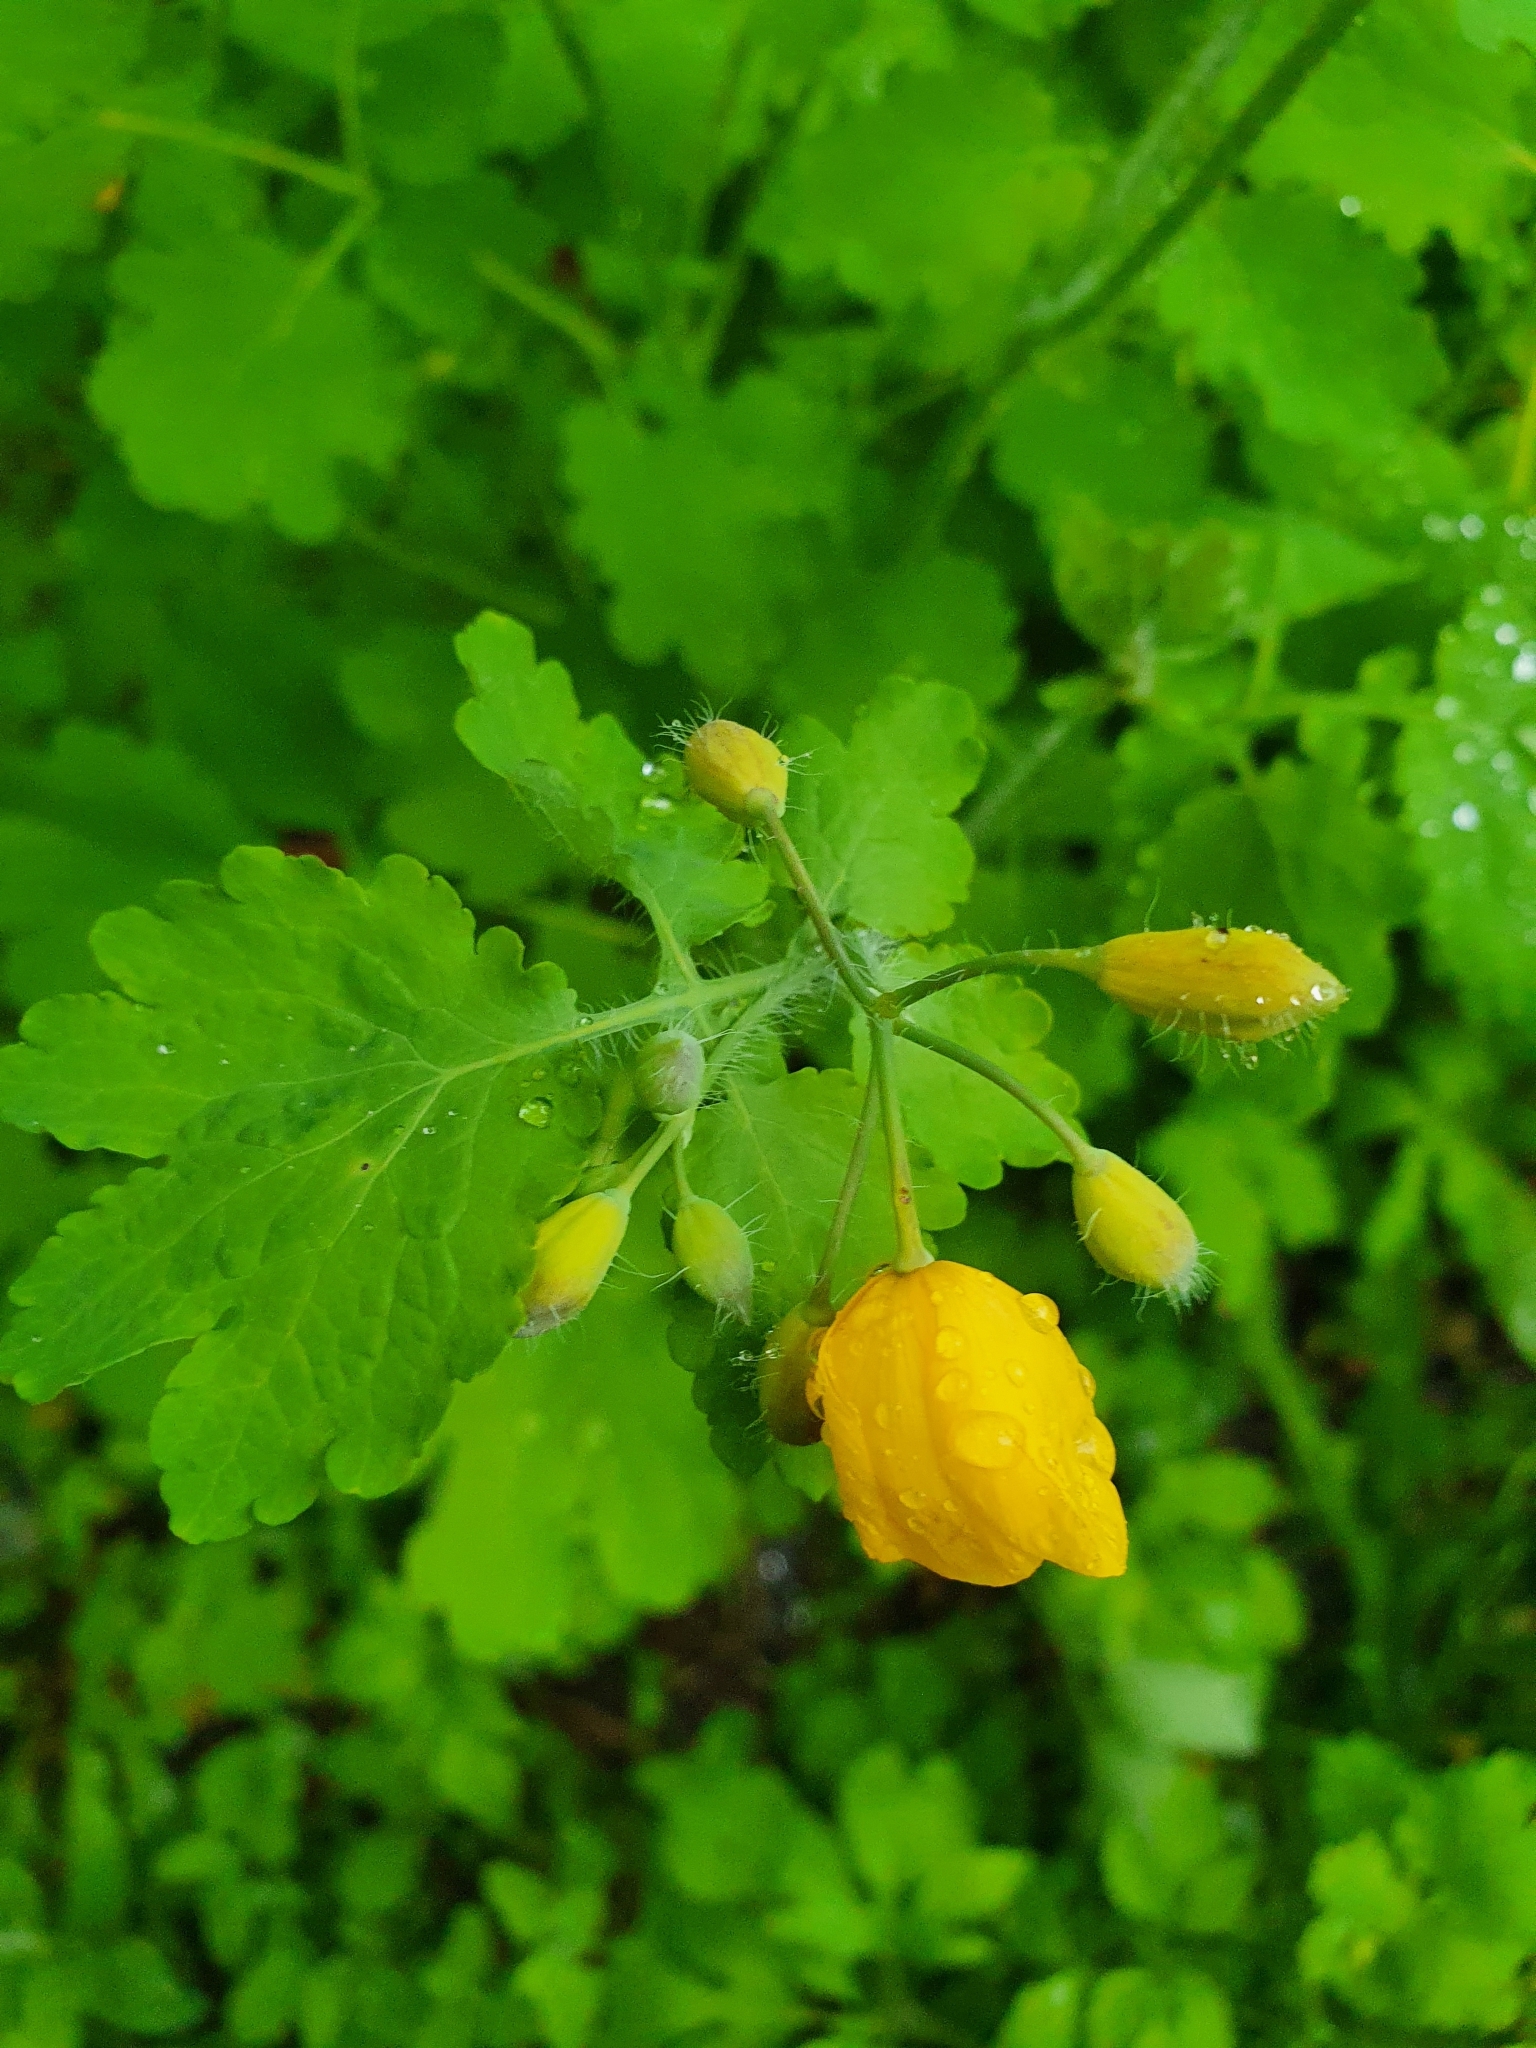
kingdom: Plantae
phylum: Tracheophyta
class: Magnoliopsida
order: Ranunculales
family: Papaveraceae
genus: Chelidonium
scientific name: Chelidonium majus
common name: Greater celandine
